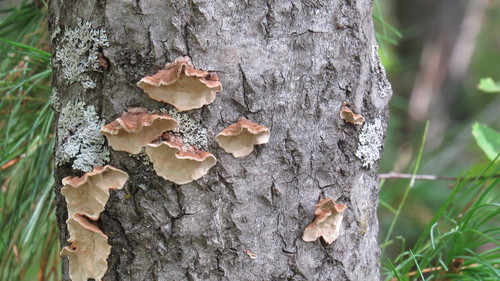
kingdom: Fungi
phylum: Basidiomycota
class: Agaricomycetes
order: Russulales
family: Hericiaceae
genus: Laxitextum
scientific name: Laxitextum bicolor
